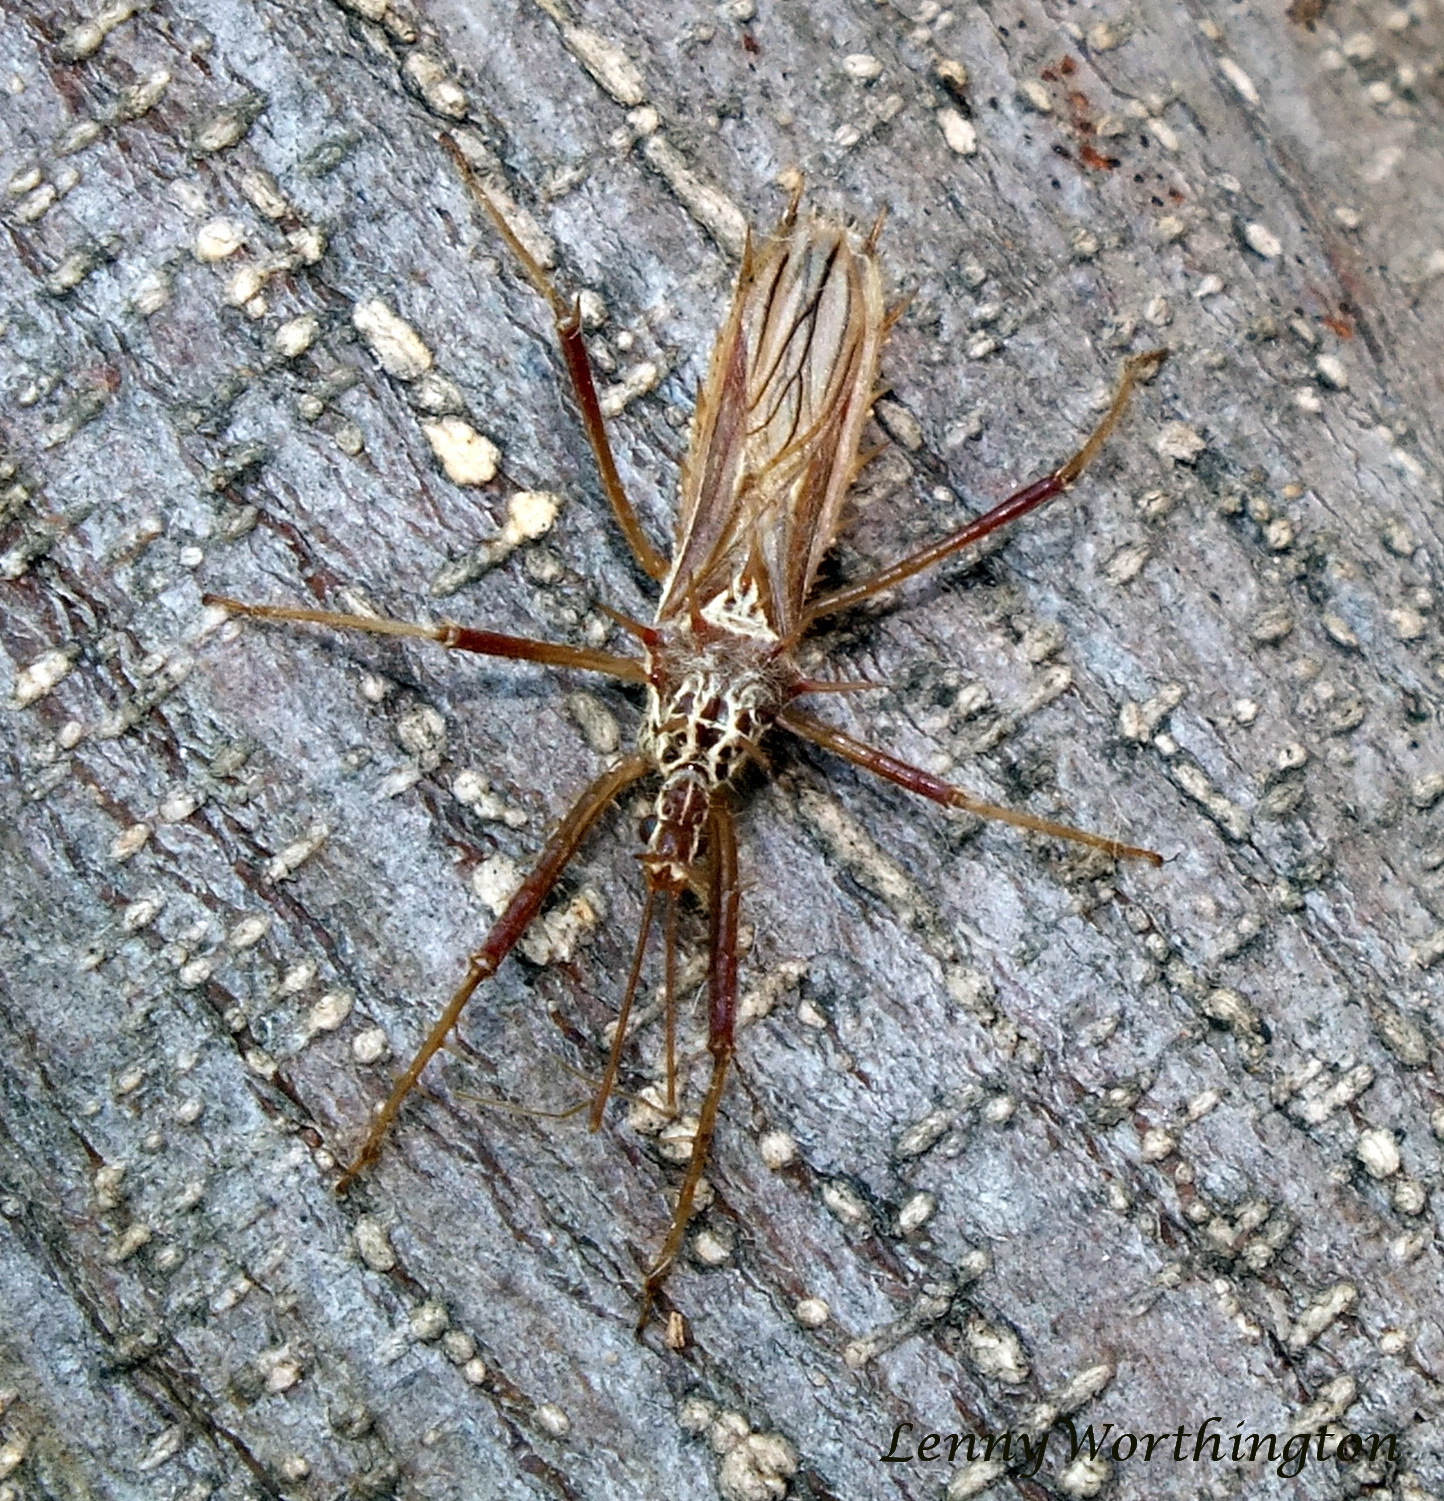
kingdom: Animalia
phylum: Arthropoda
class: Insecta
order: Hemiptera
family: Reduviidae
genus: Polididus
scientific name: Polididus armatissimus
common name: Assassin bug
